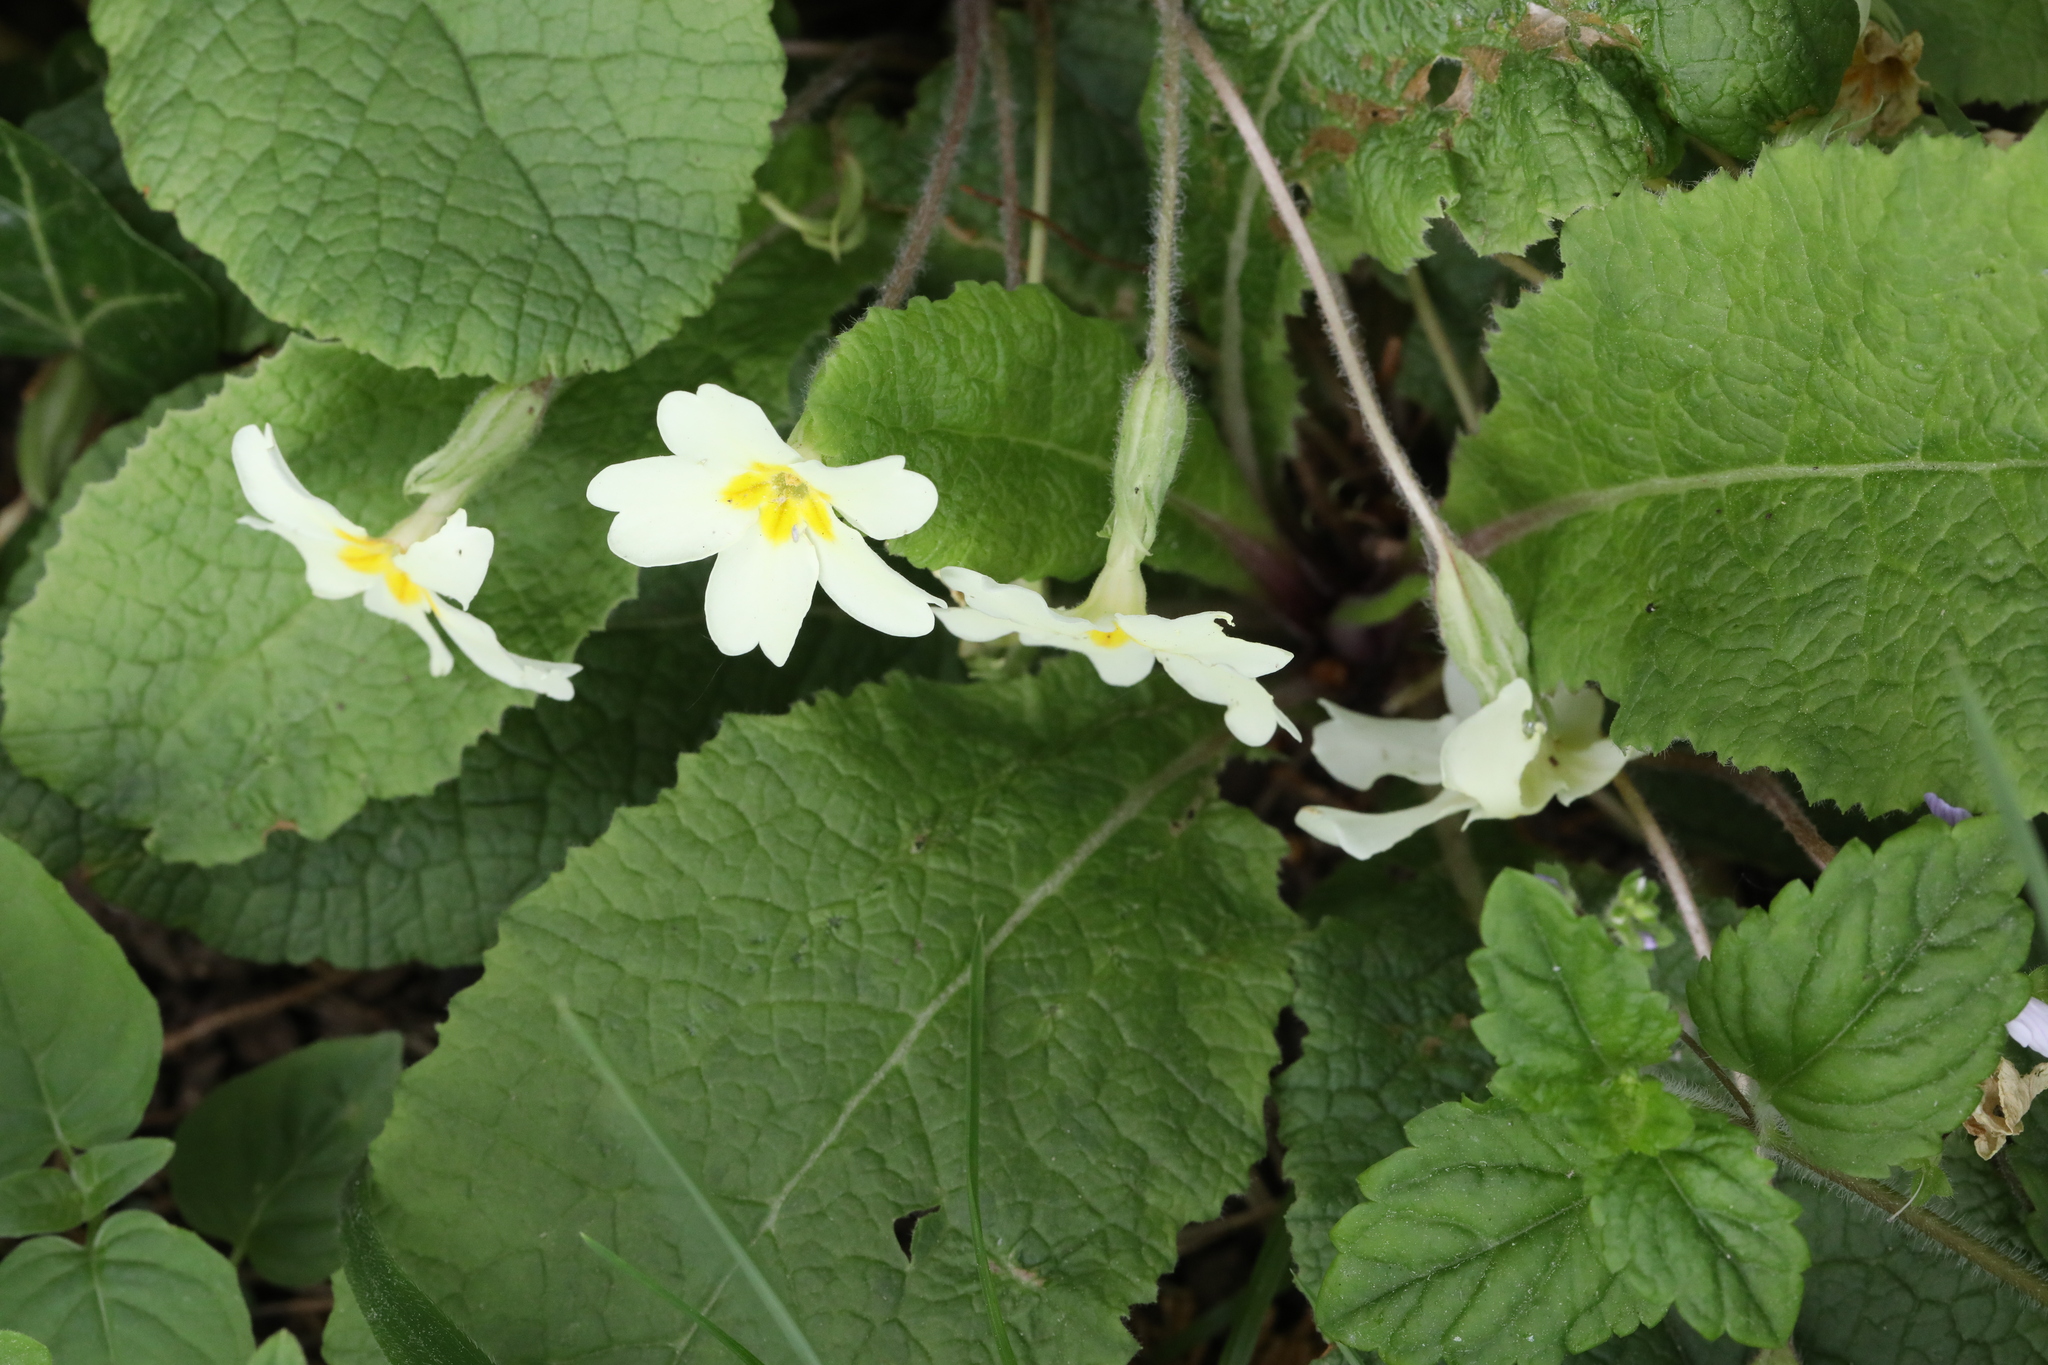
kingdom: Plantae
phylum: Tracheophyta
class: Magnoliopsida
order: Ericales
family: Primulaceae
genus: Primula
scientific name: Primula vulgaris
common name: Primrose
